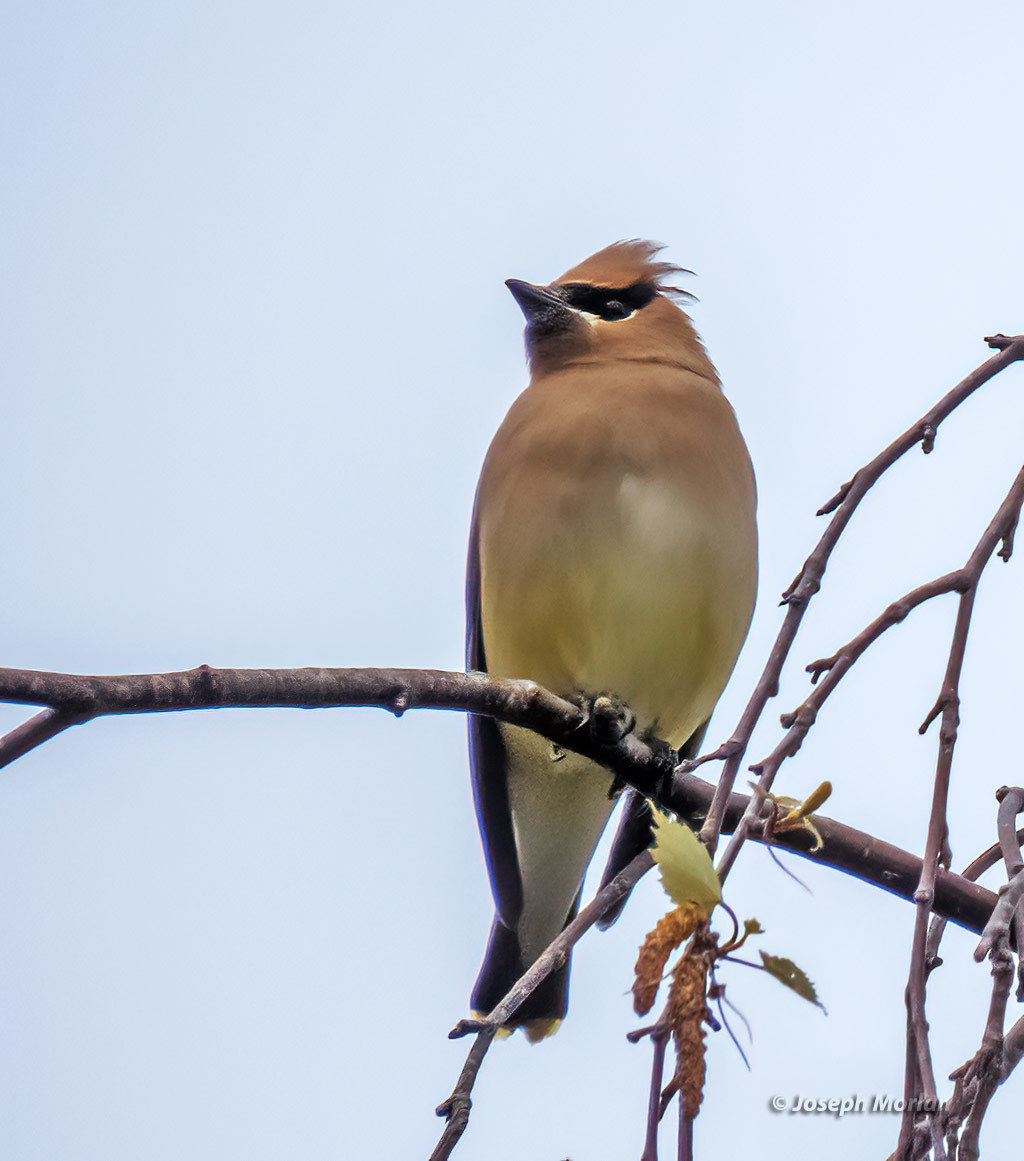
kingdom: Animalia
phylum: Chordata
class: Aves
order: Passeriformes
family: Bombycillidae
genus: Bombycilla
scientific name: Bombycilla cedrorum
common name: Cedar waxwing
